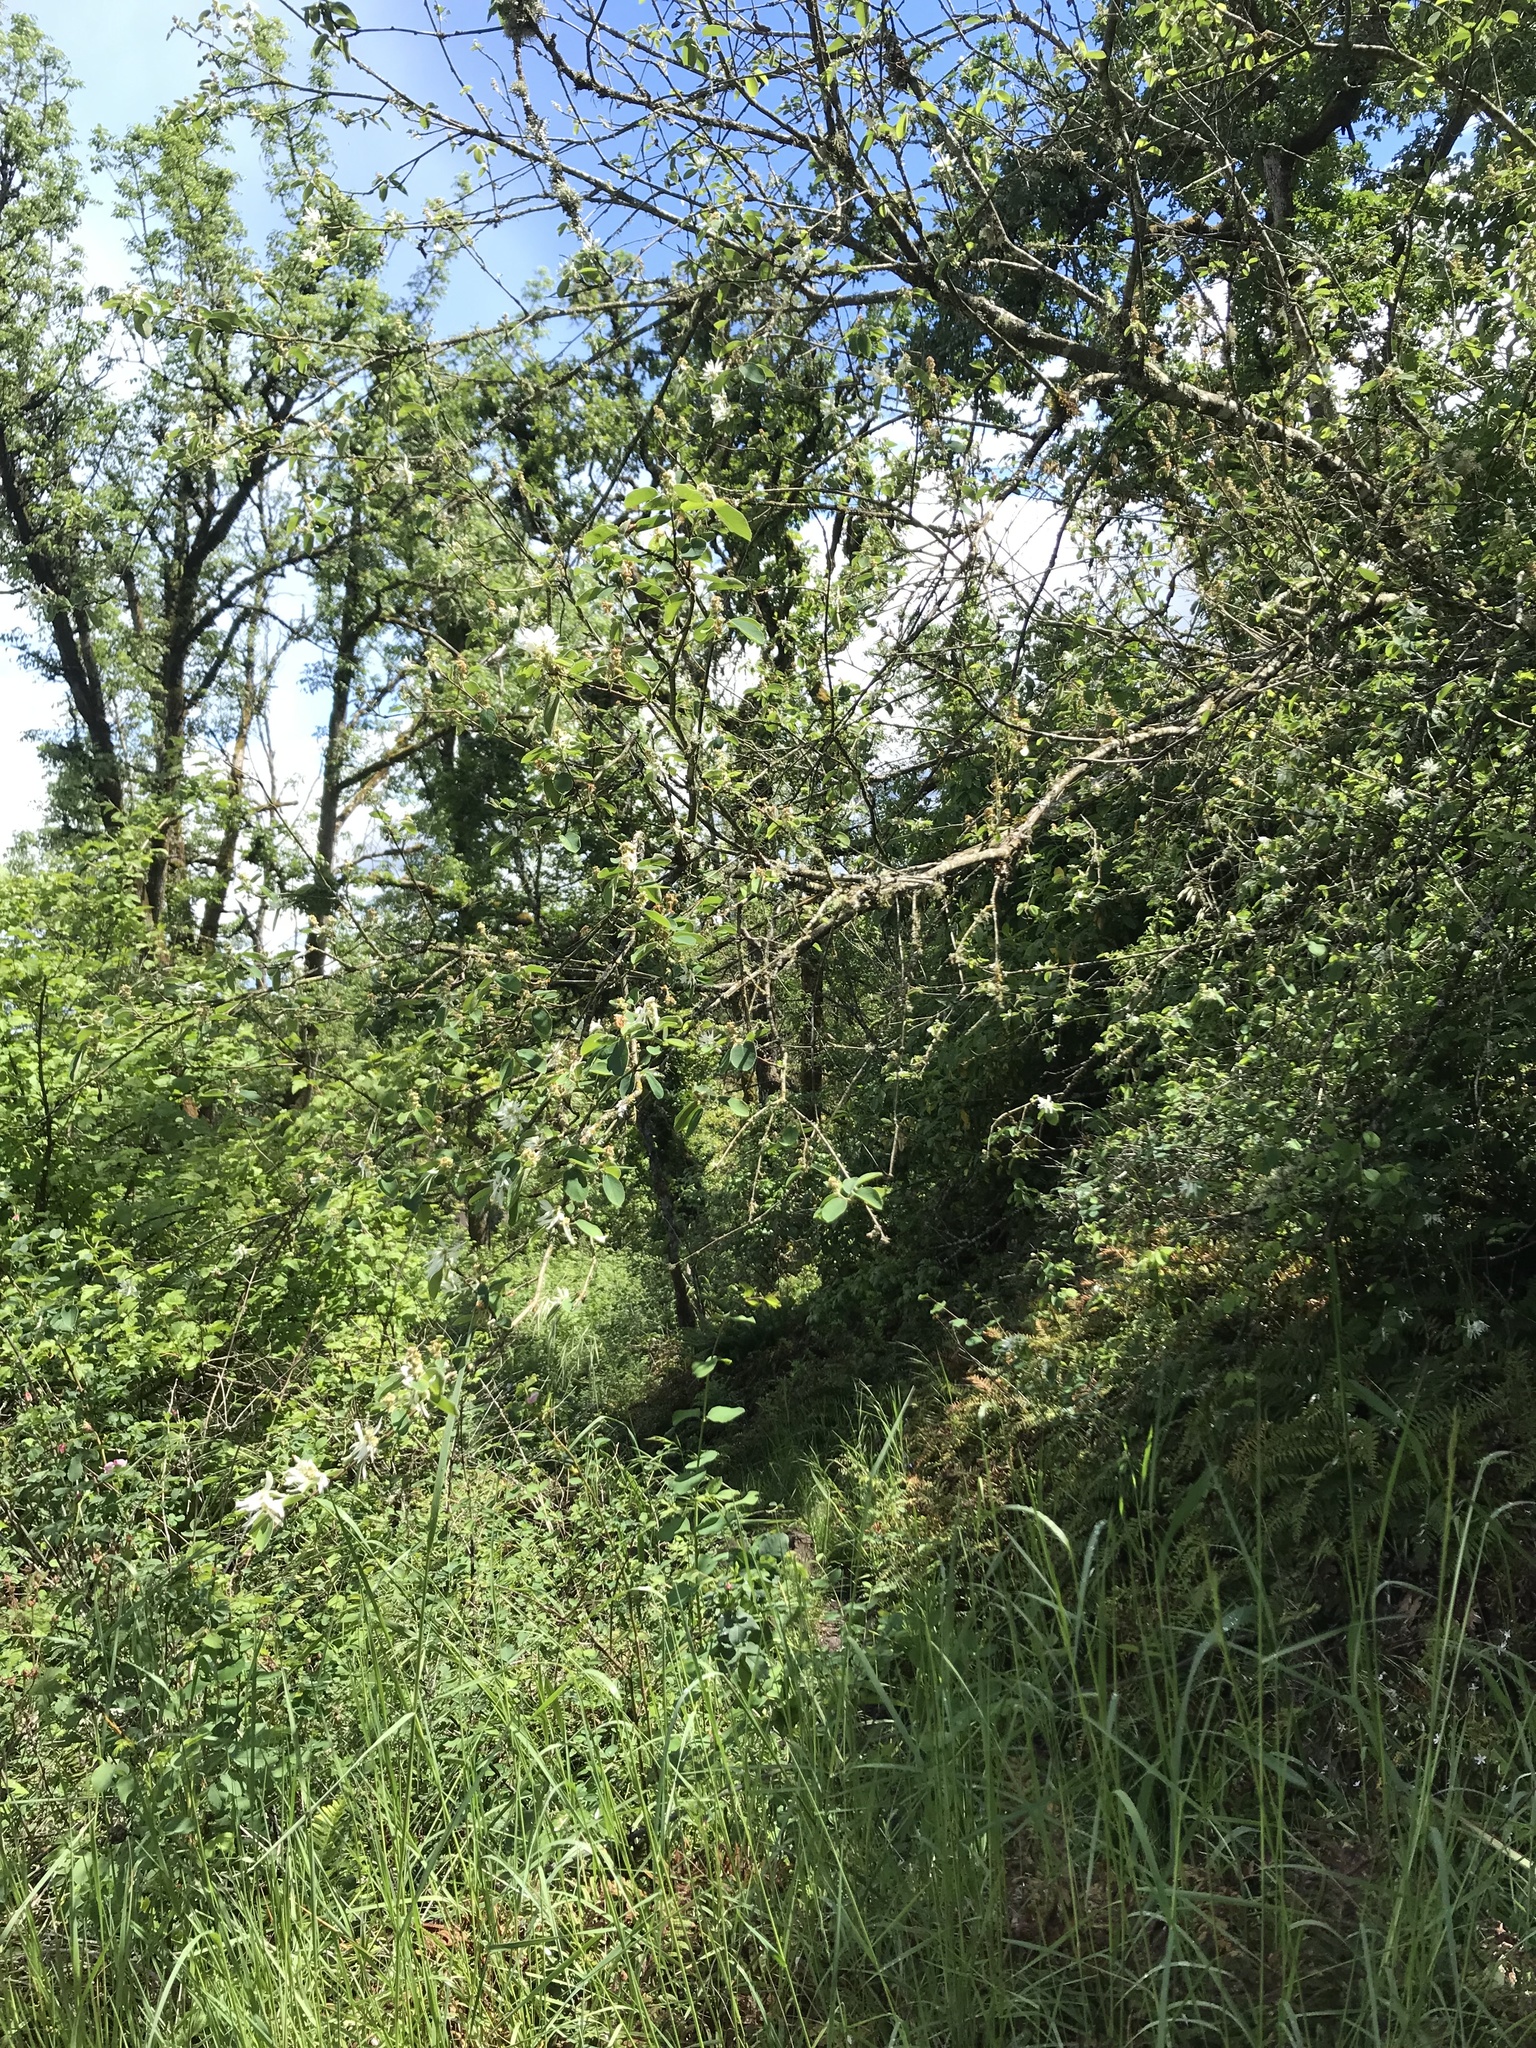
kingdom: Plantae
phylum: Tracheophyta
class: Magnoliopsida
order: Rosales
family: Rosaceae
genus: Amelanchier
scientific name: Amelanchier alnifolia
